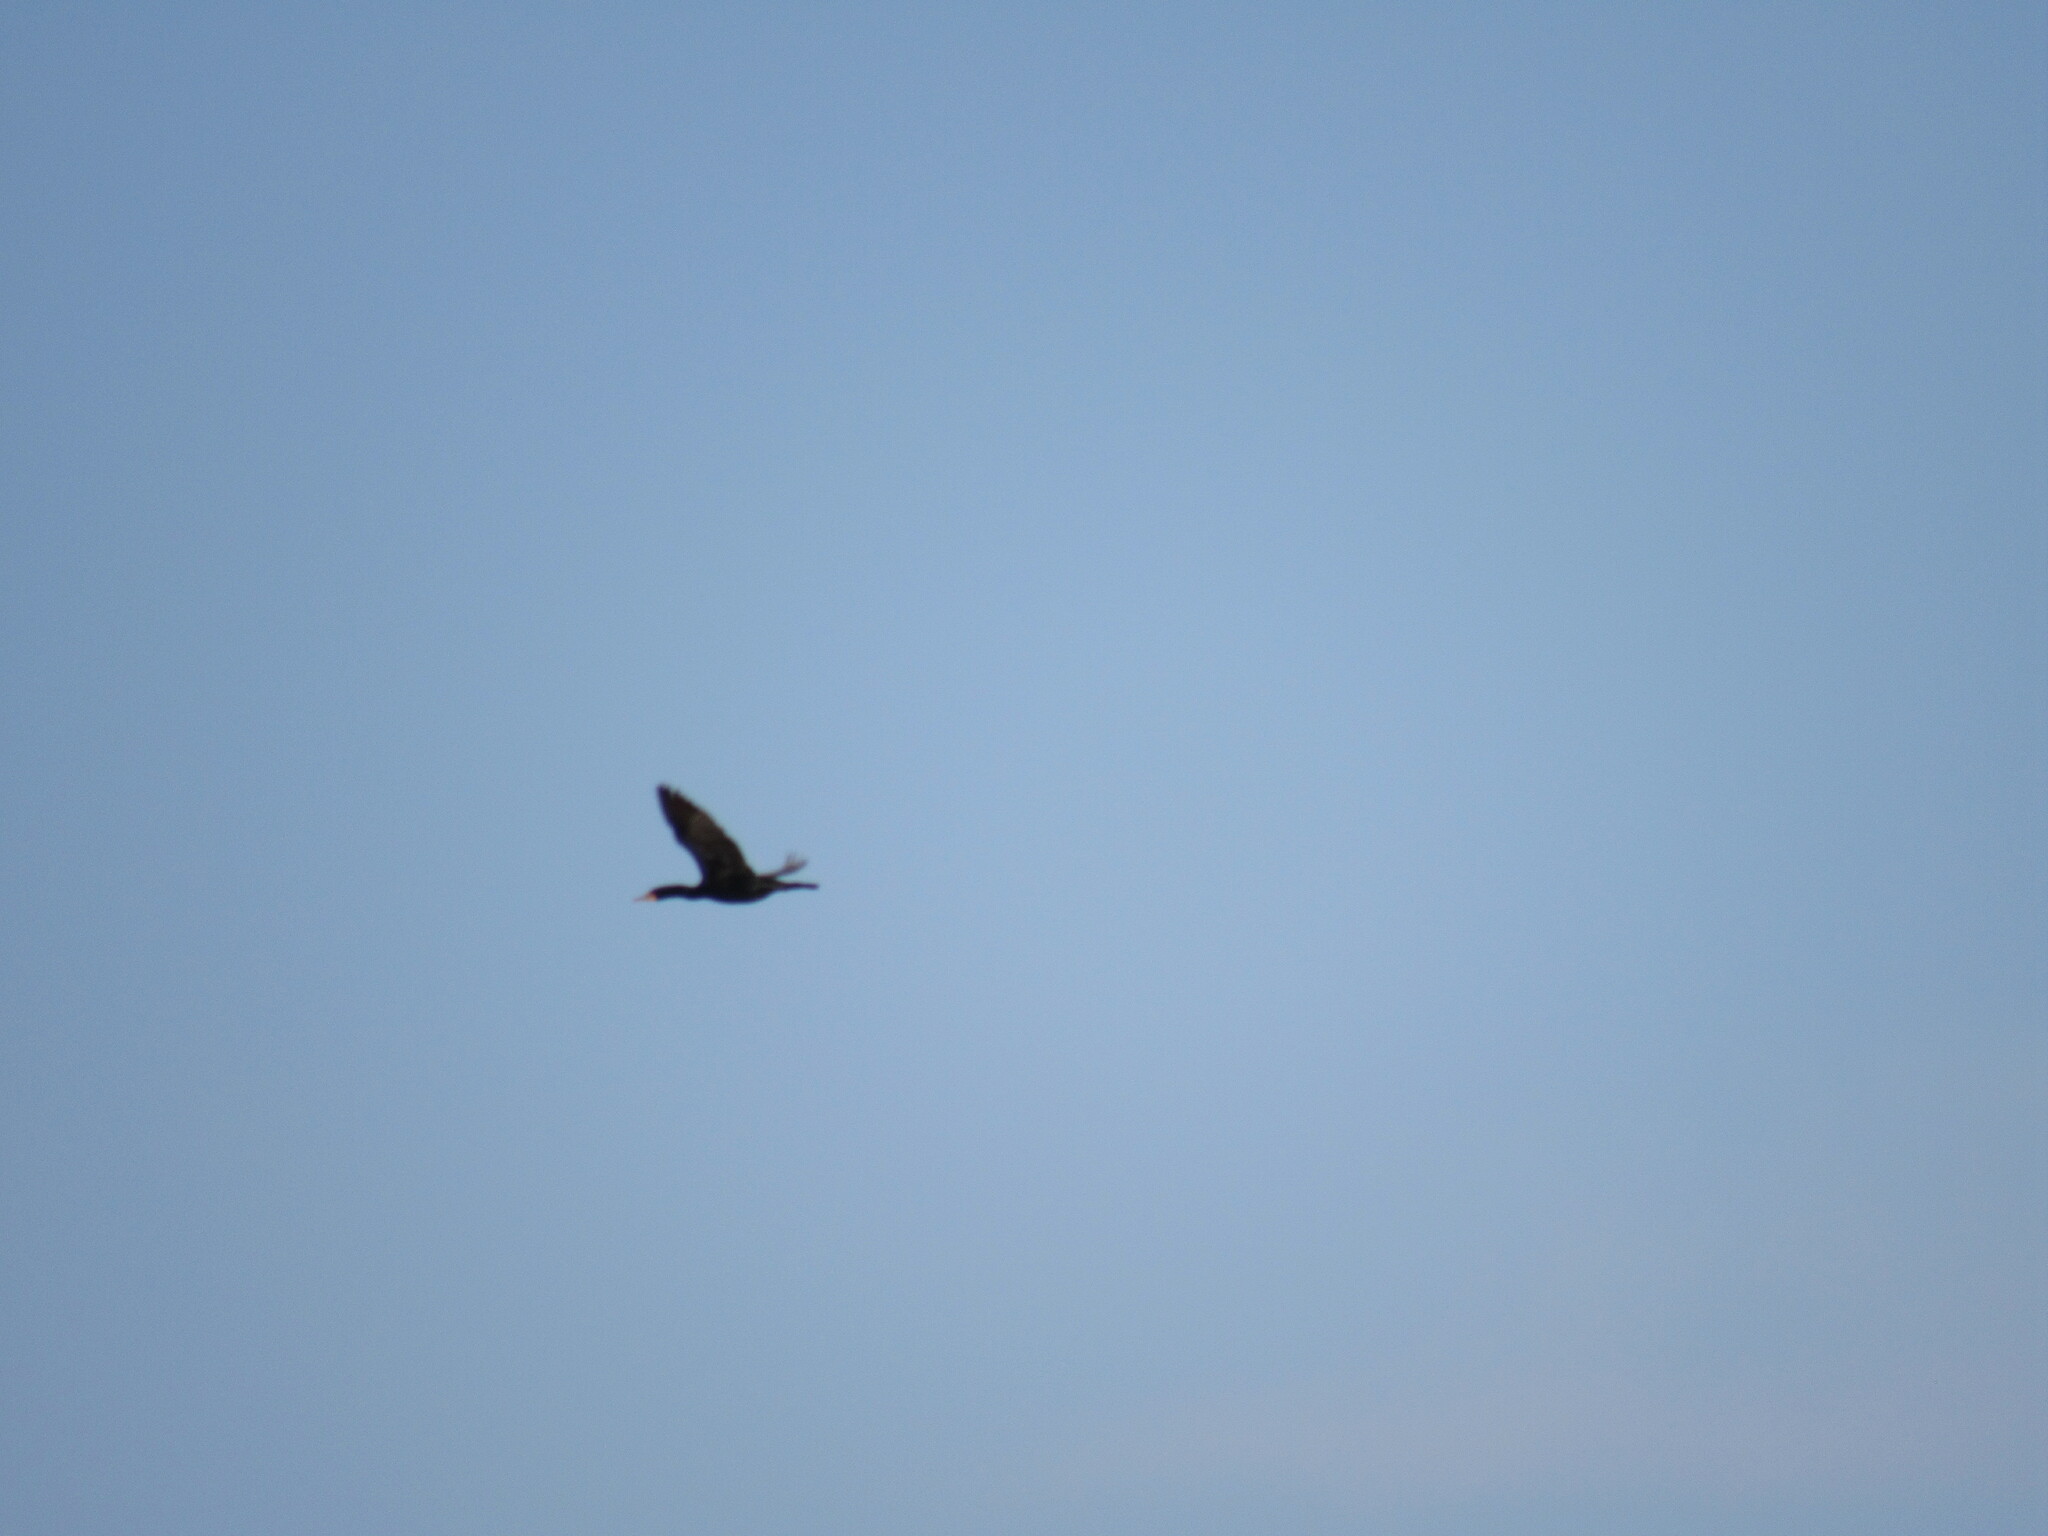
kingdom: Animalia
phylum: Chordata
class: Aves
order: Suliformes
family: Phalacrocoracidae
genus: Phalacrocorax
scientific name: Phalacrocorax auritus
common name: Double-crested cormorant
